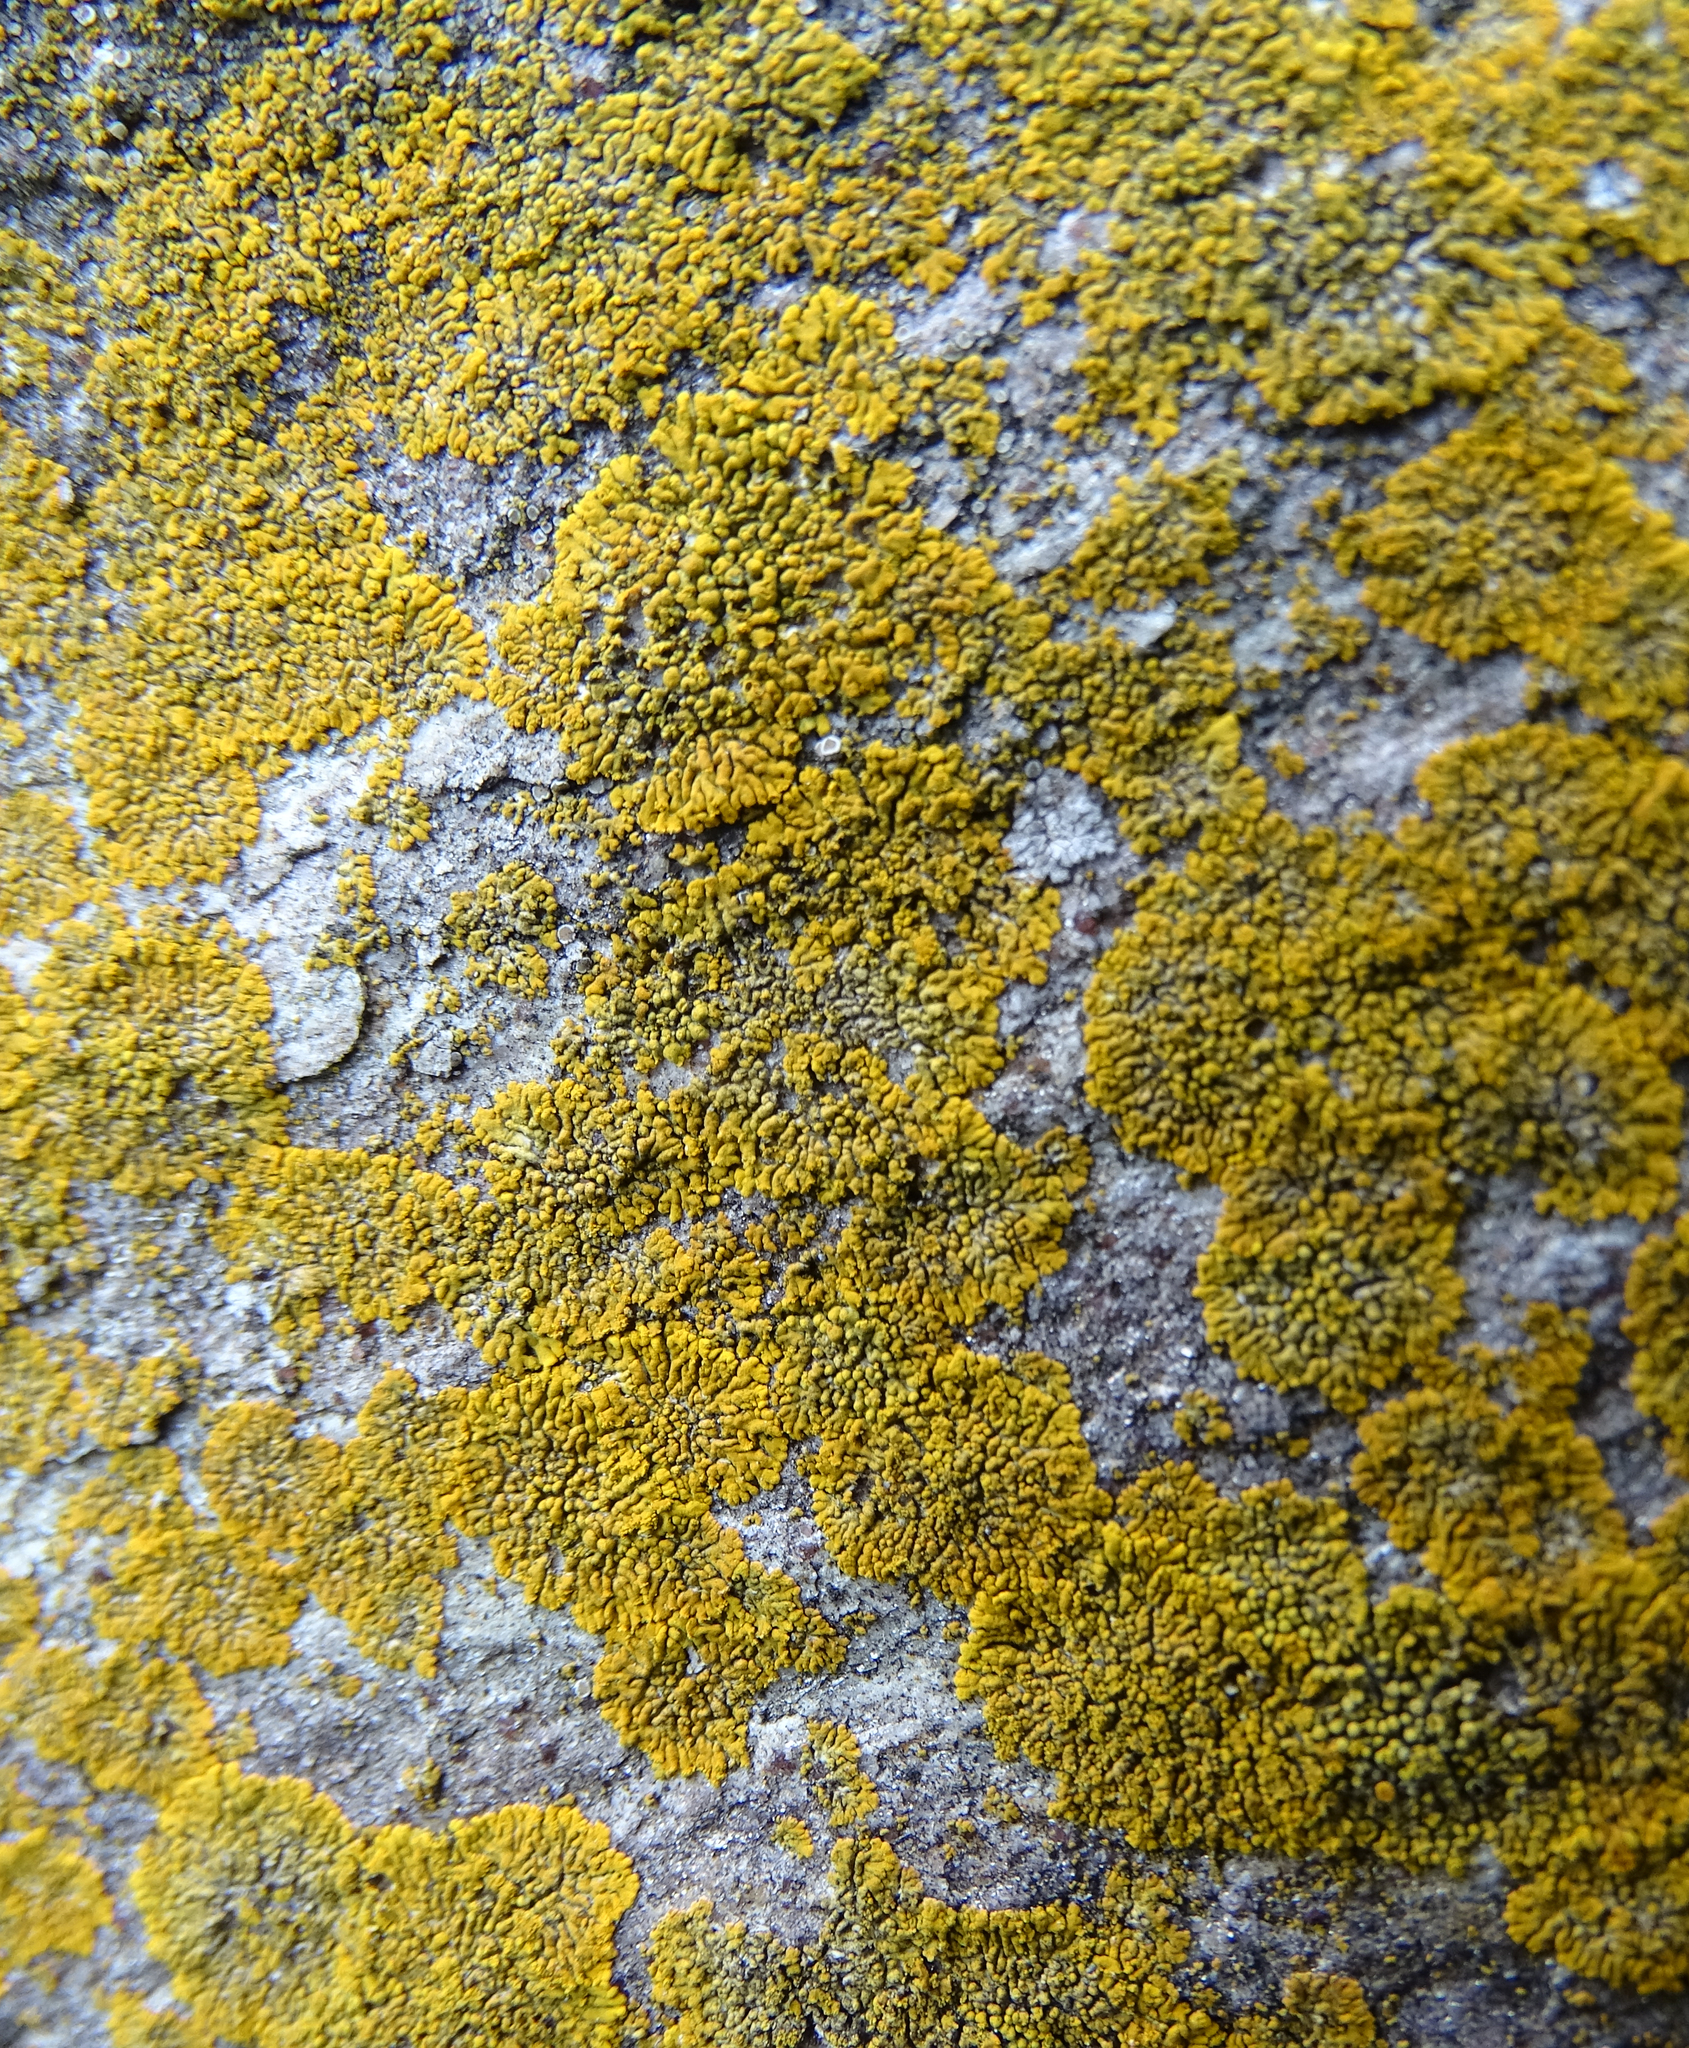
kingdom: Fungi
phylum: Ascomycota
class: Lecanoromycetes
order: Teloschistales
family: Teloschistaceae
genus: Calogaya
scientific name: Calogaya decipiens
